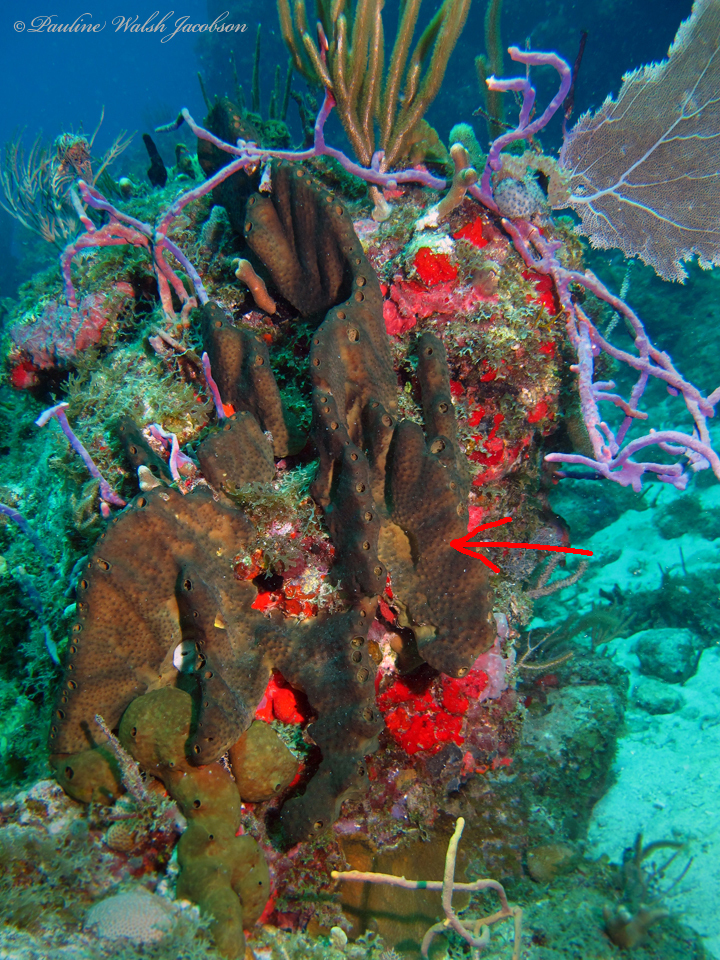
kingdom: Animalia
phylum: Porifera
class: Demospongiae
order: Dictyoceratida
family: Thorectidae
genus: Smenospongia
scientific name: Smenospongia conulosa
